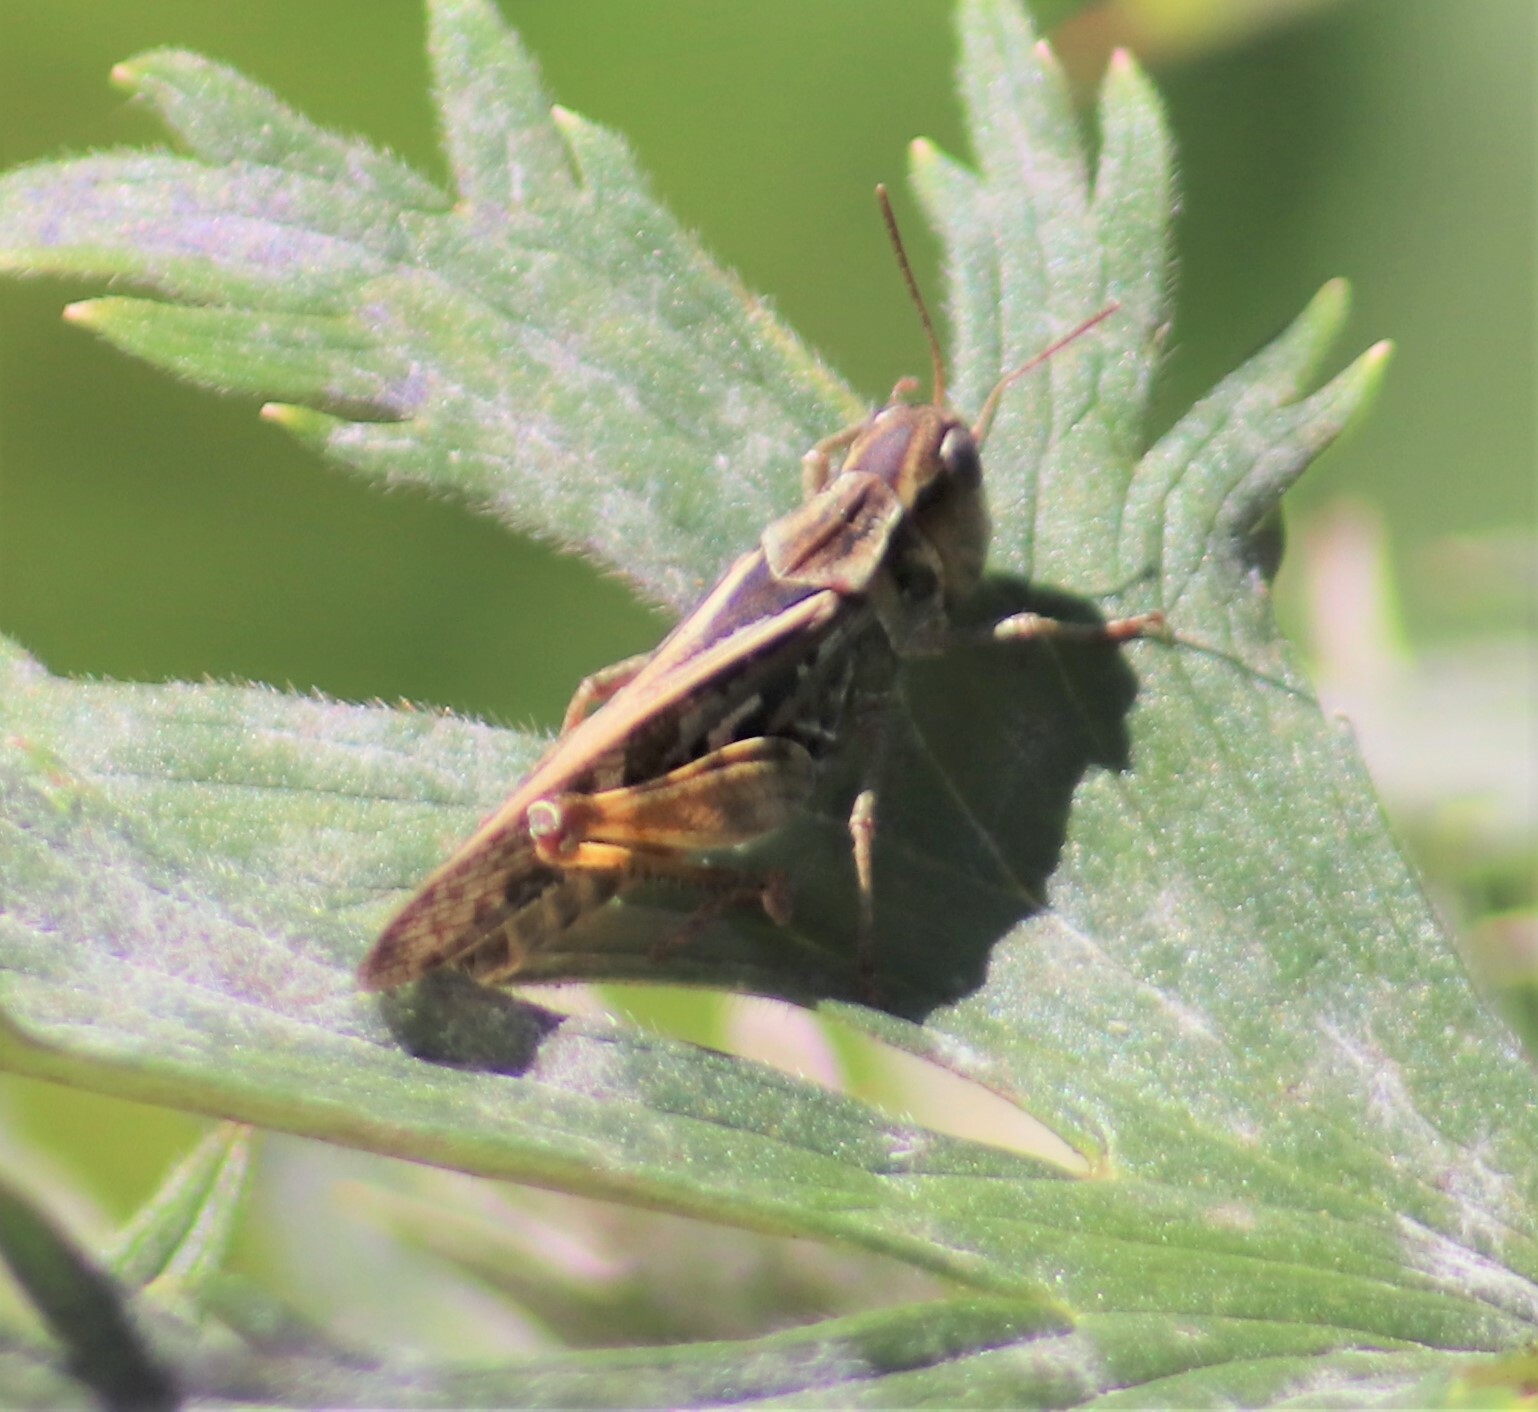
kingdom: Animalia
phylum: Arthropoda
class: Insecta
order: Orthoptera
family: Acrididae
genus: Camnula
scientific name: Camnula pellucida
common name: Clear-winged grasshopper
